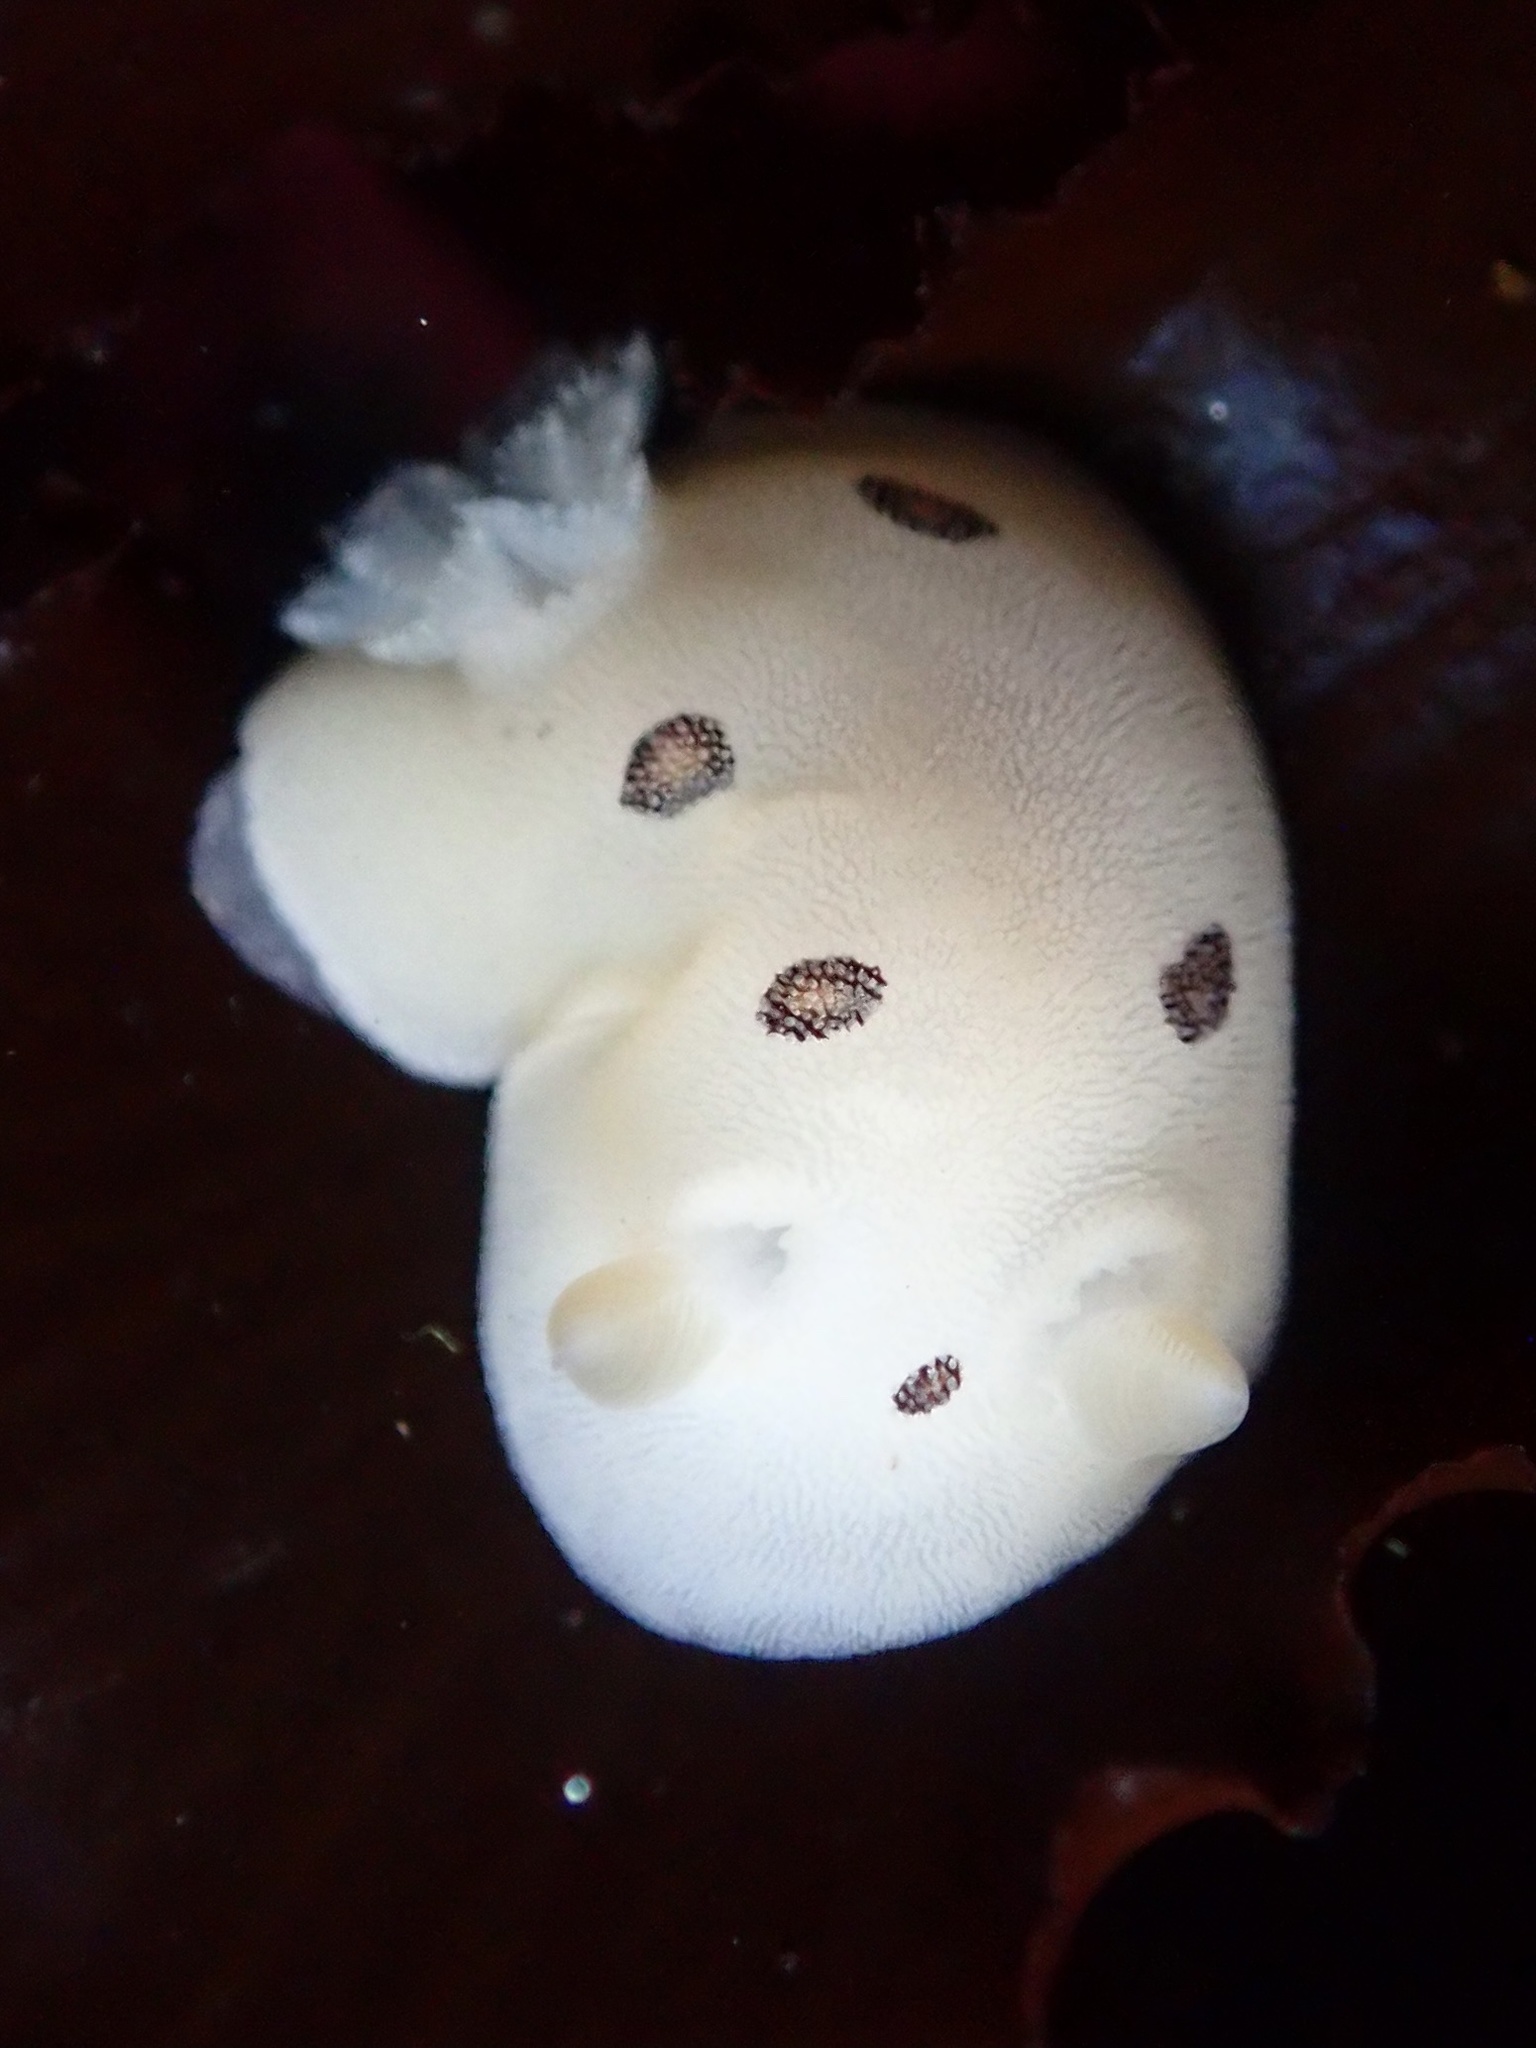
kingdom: Animalia
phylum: Mollusca
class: Gastropoda
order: Nudibranchia
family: Discodorididae
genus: Diaulula
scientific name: Diaulula sandiegensis
